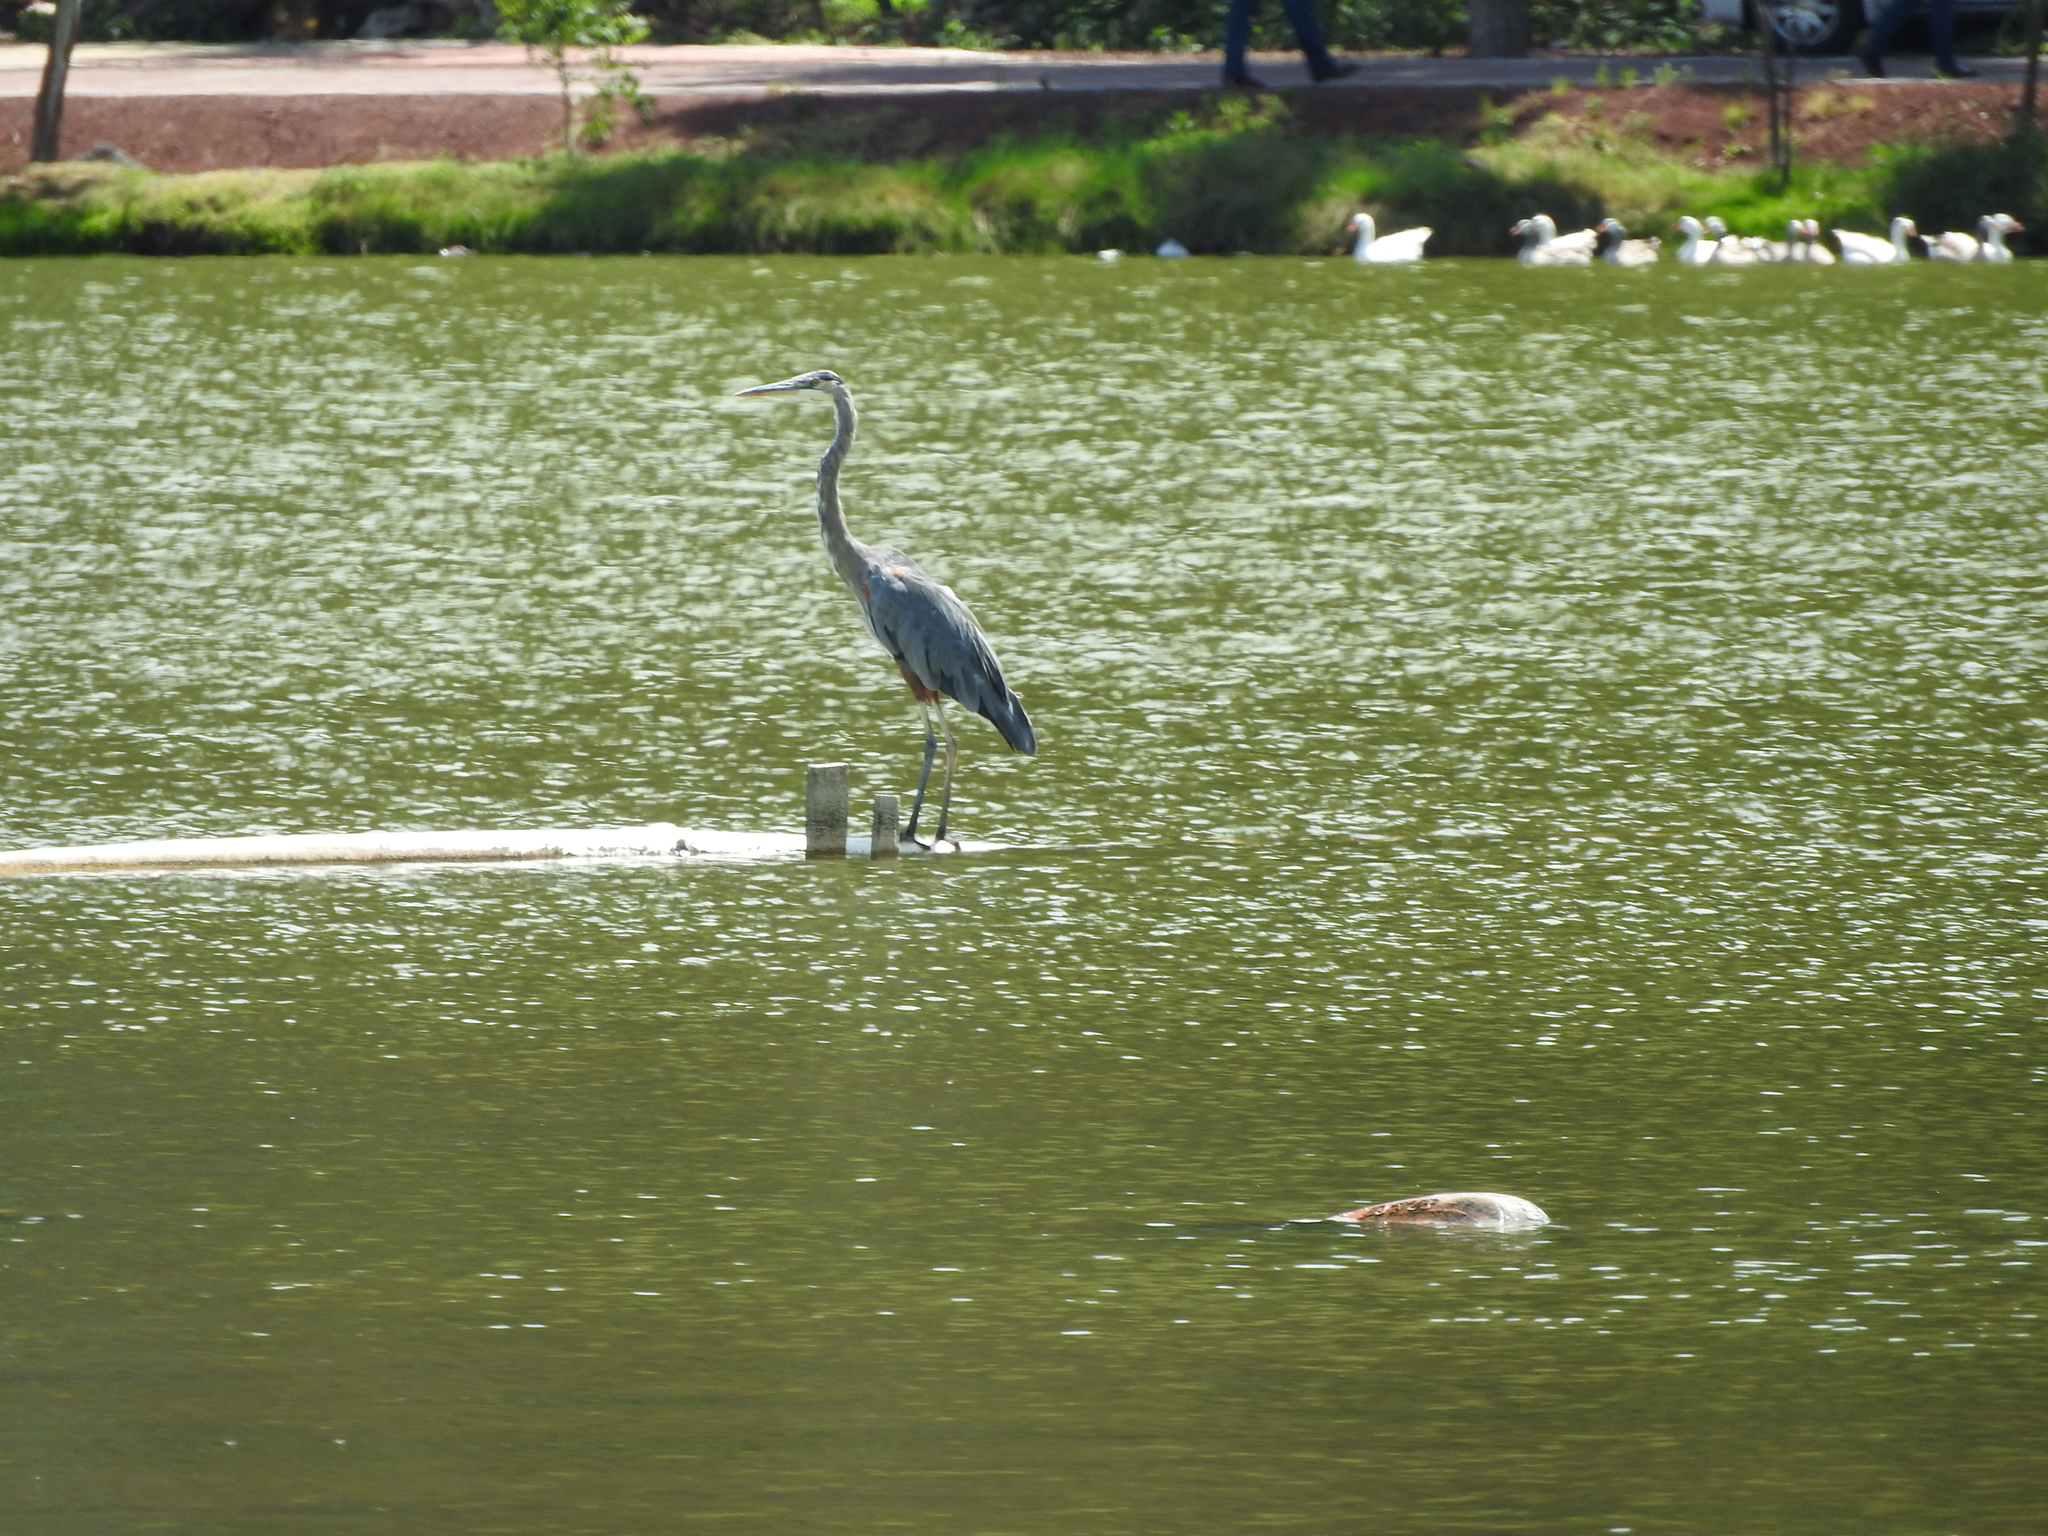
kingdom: Animalia
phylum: Chordata
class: Aves
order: Pelecaniformes
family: Ardeidae
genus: Ardea
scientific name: Ardea herodias
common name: Great blue heron
